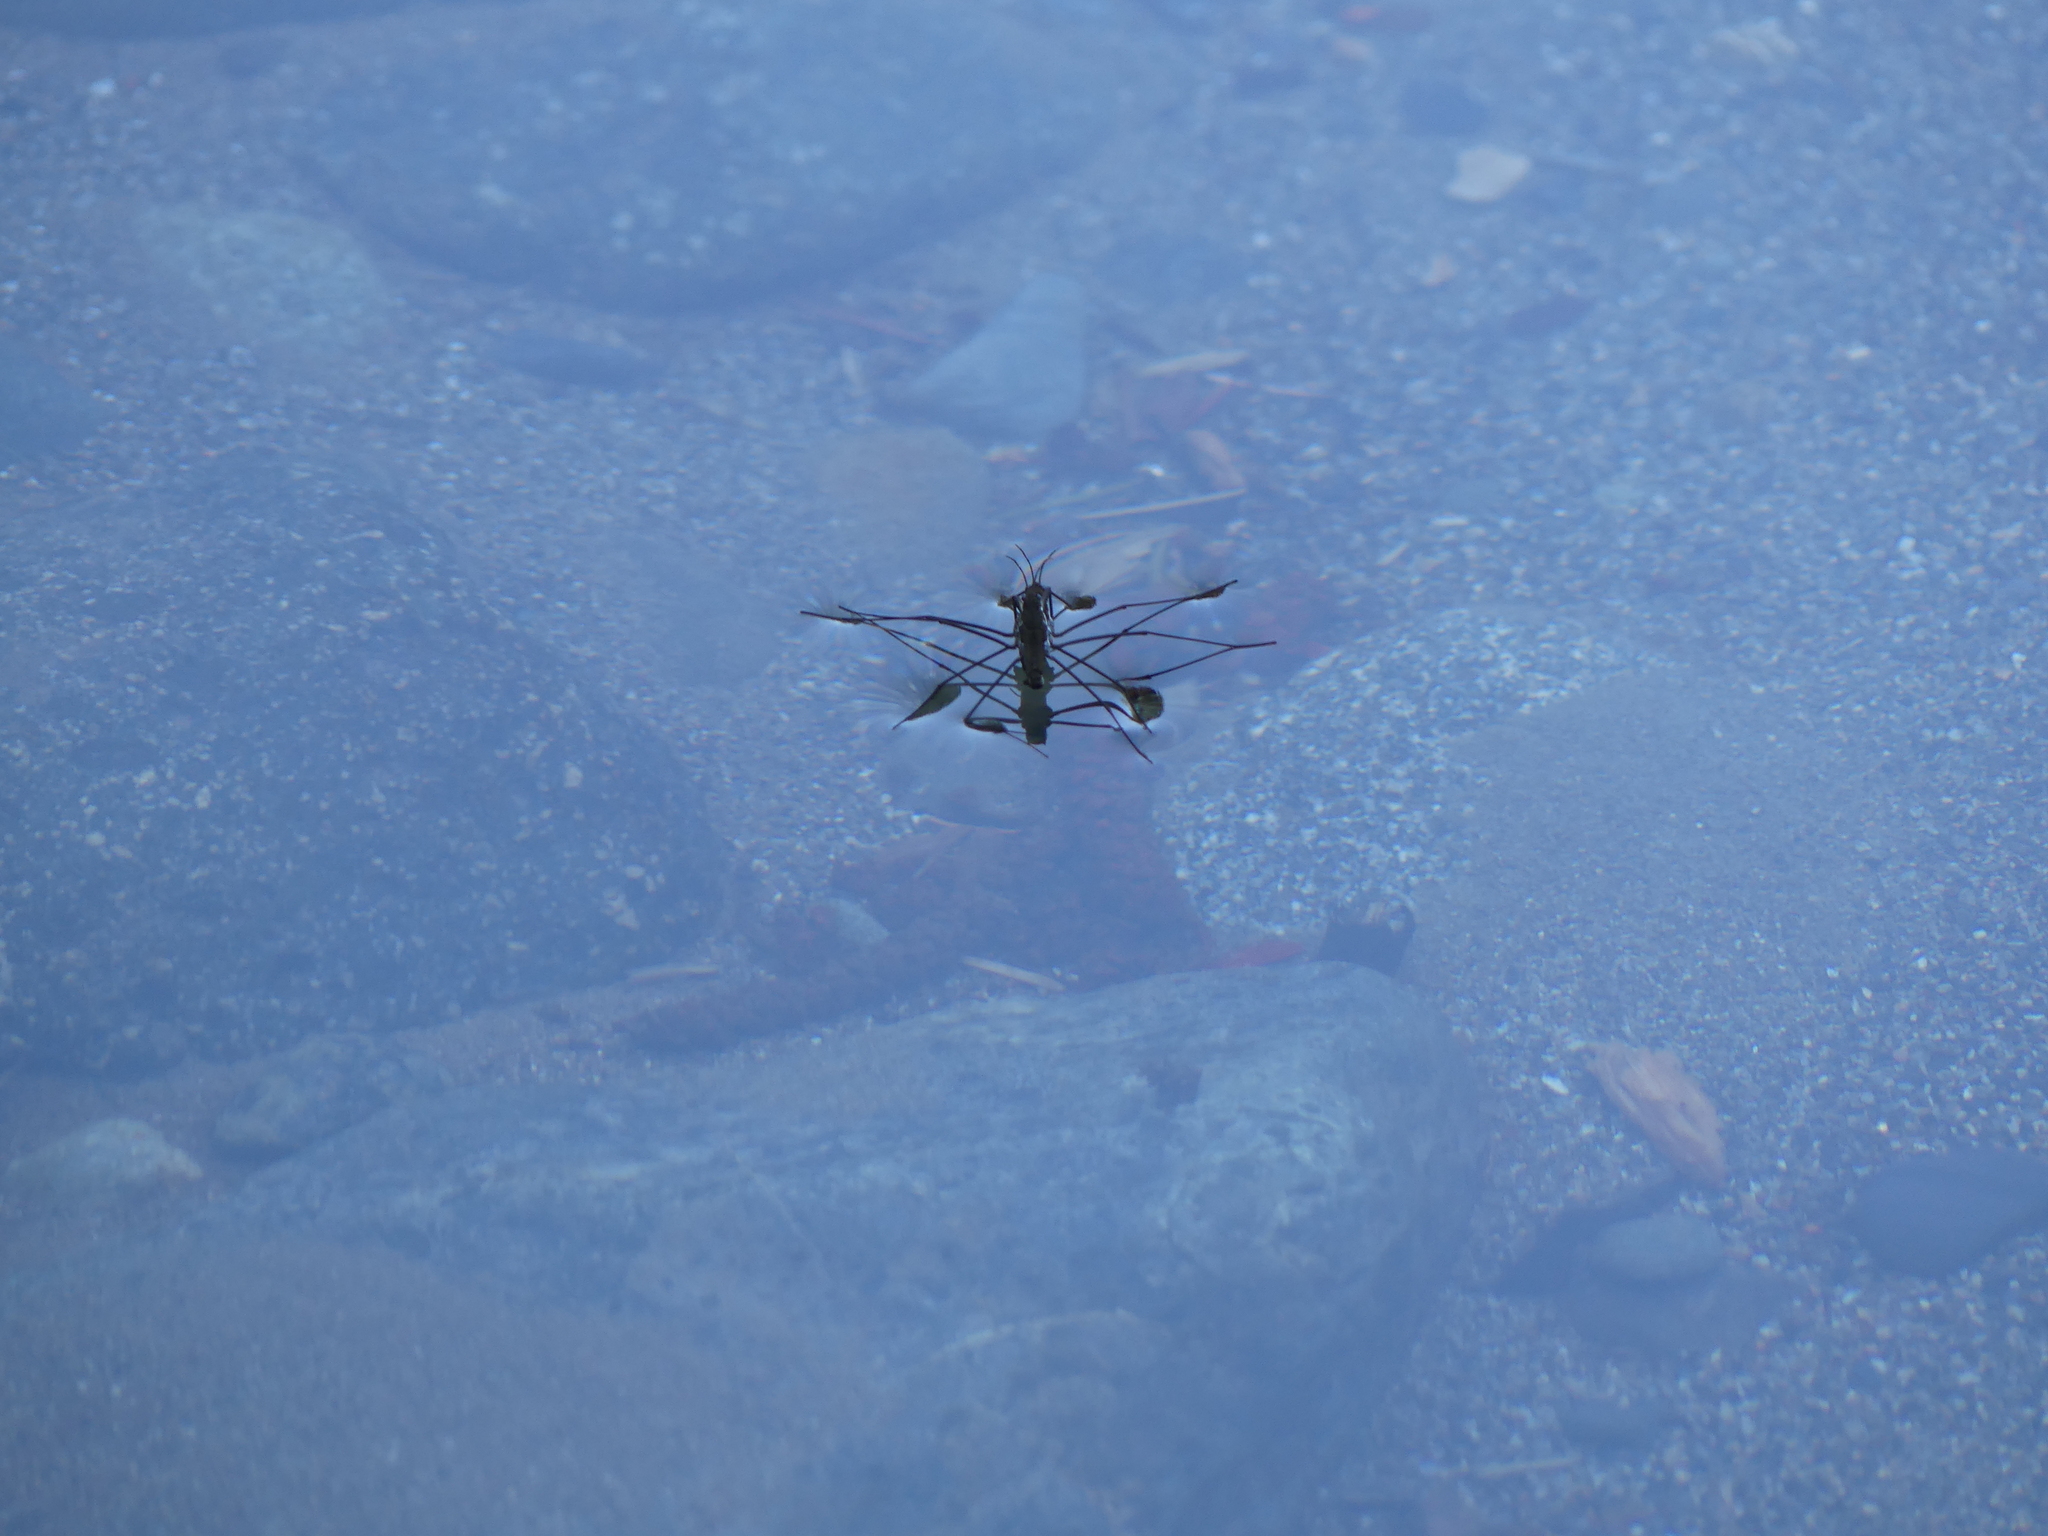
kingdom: Animalia
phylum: Arthropoda
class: Insecta
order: Hemiptera
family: Gerridae
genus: Aquarius
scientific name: Aquarius remigis
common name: Common water strider
